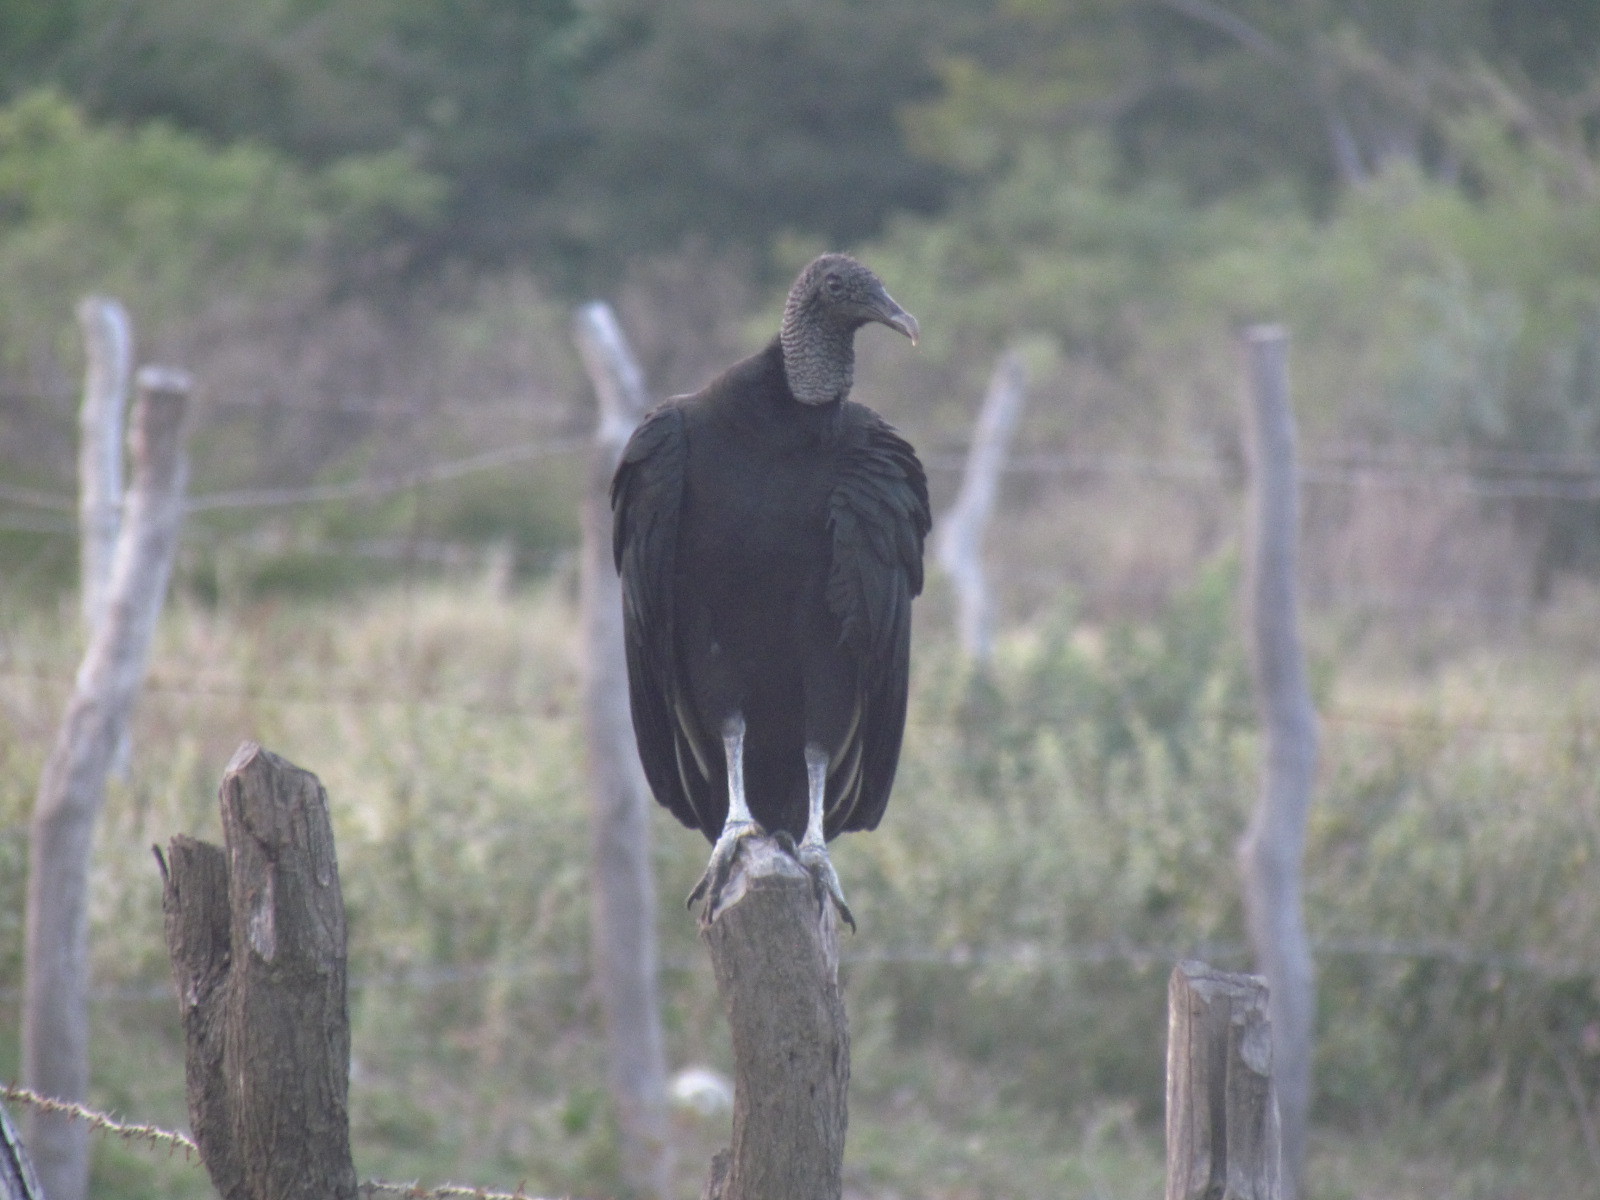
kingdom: Animalia
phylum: Chordata
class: Aves
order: Accipitriformes
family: Cathartidae
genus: Coragyps
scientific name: Coragyps atratus
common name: Black vulture
